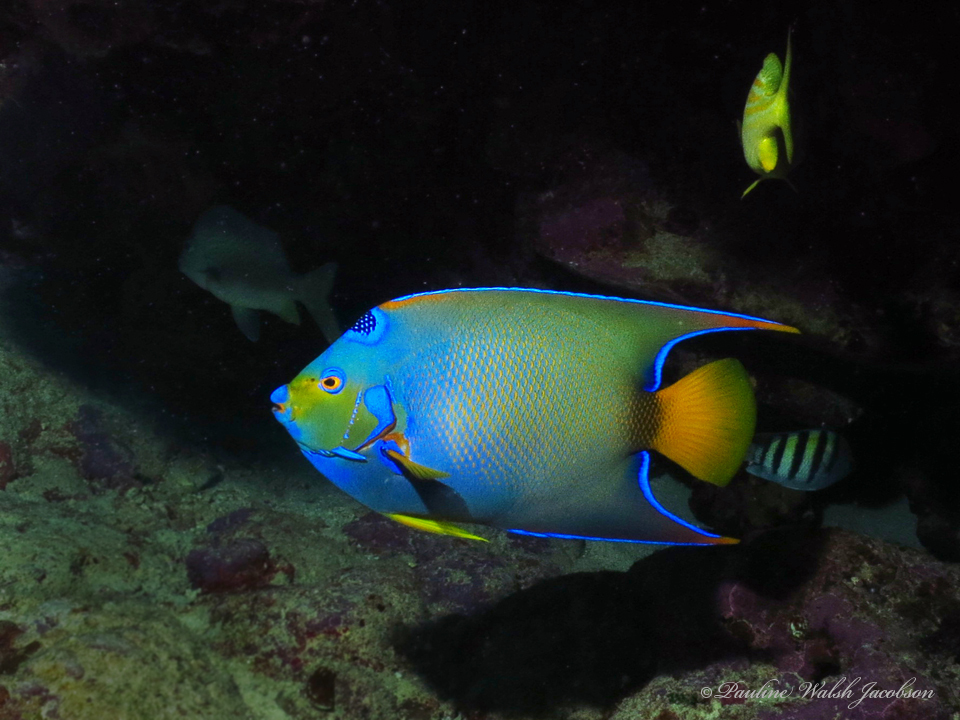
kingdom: Animalia
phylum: Chordata
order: Perciformes
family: Pomacanthidae
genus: Holacanthus
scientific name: Holacanthus ciliaris
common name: Queen angelfish
